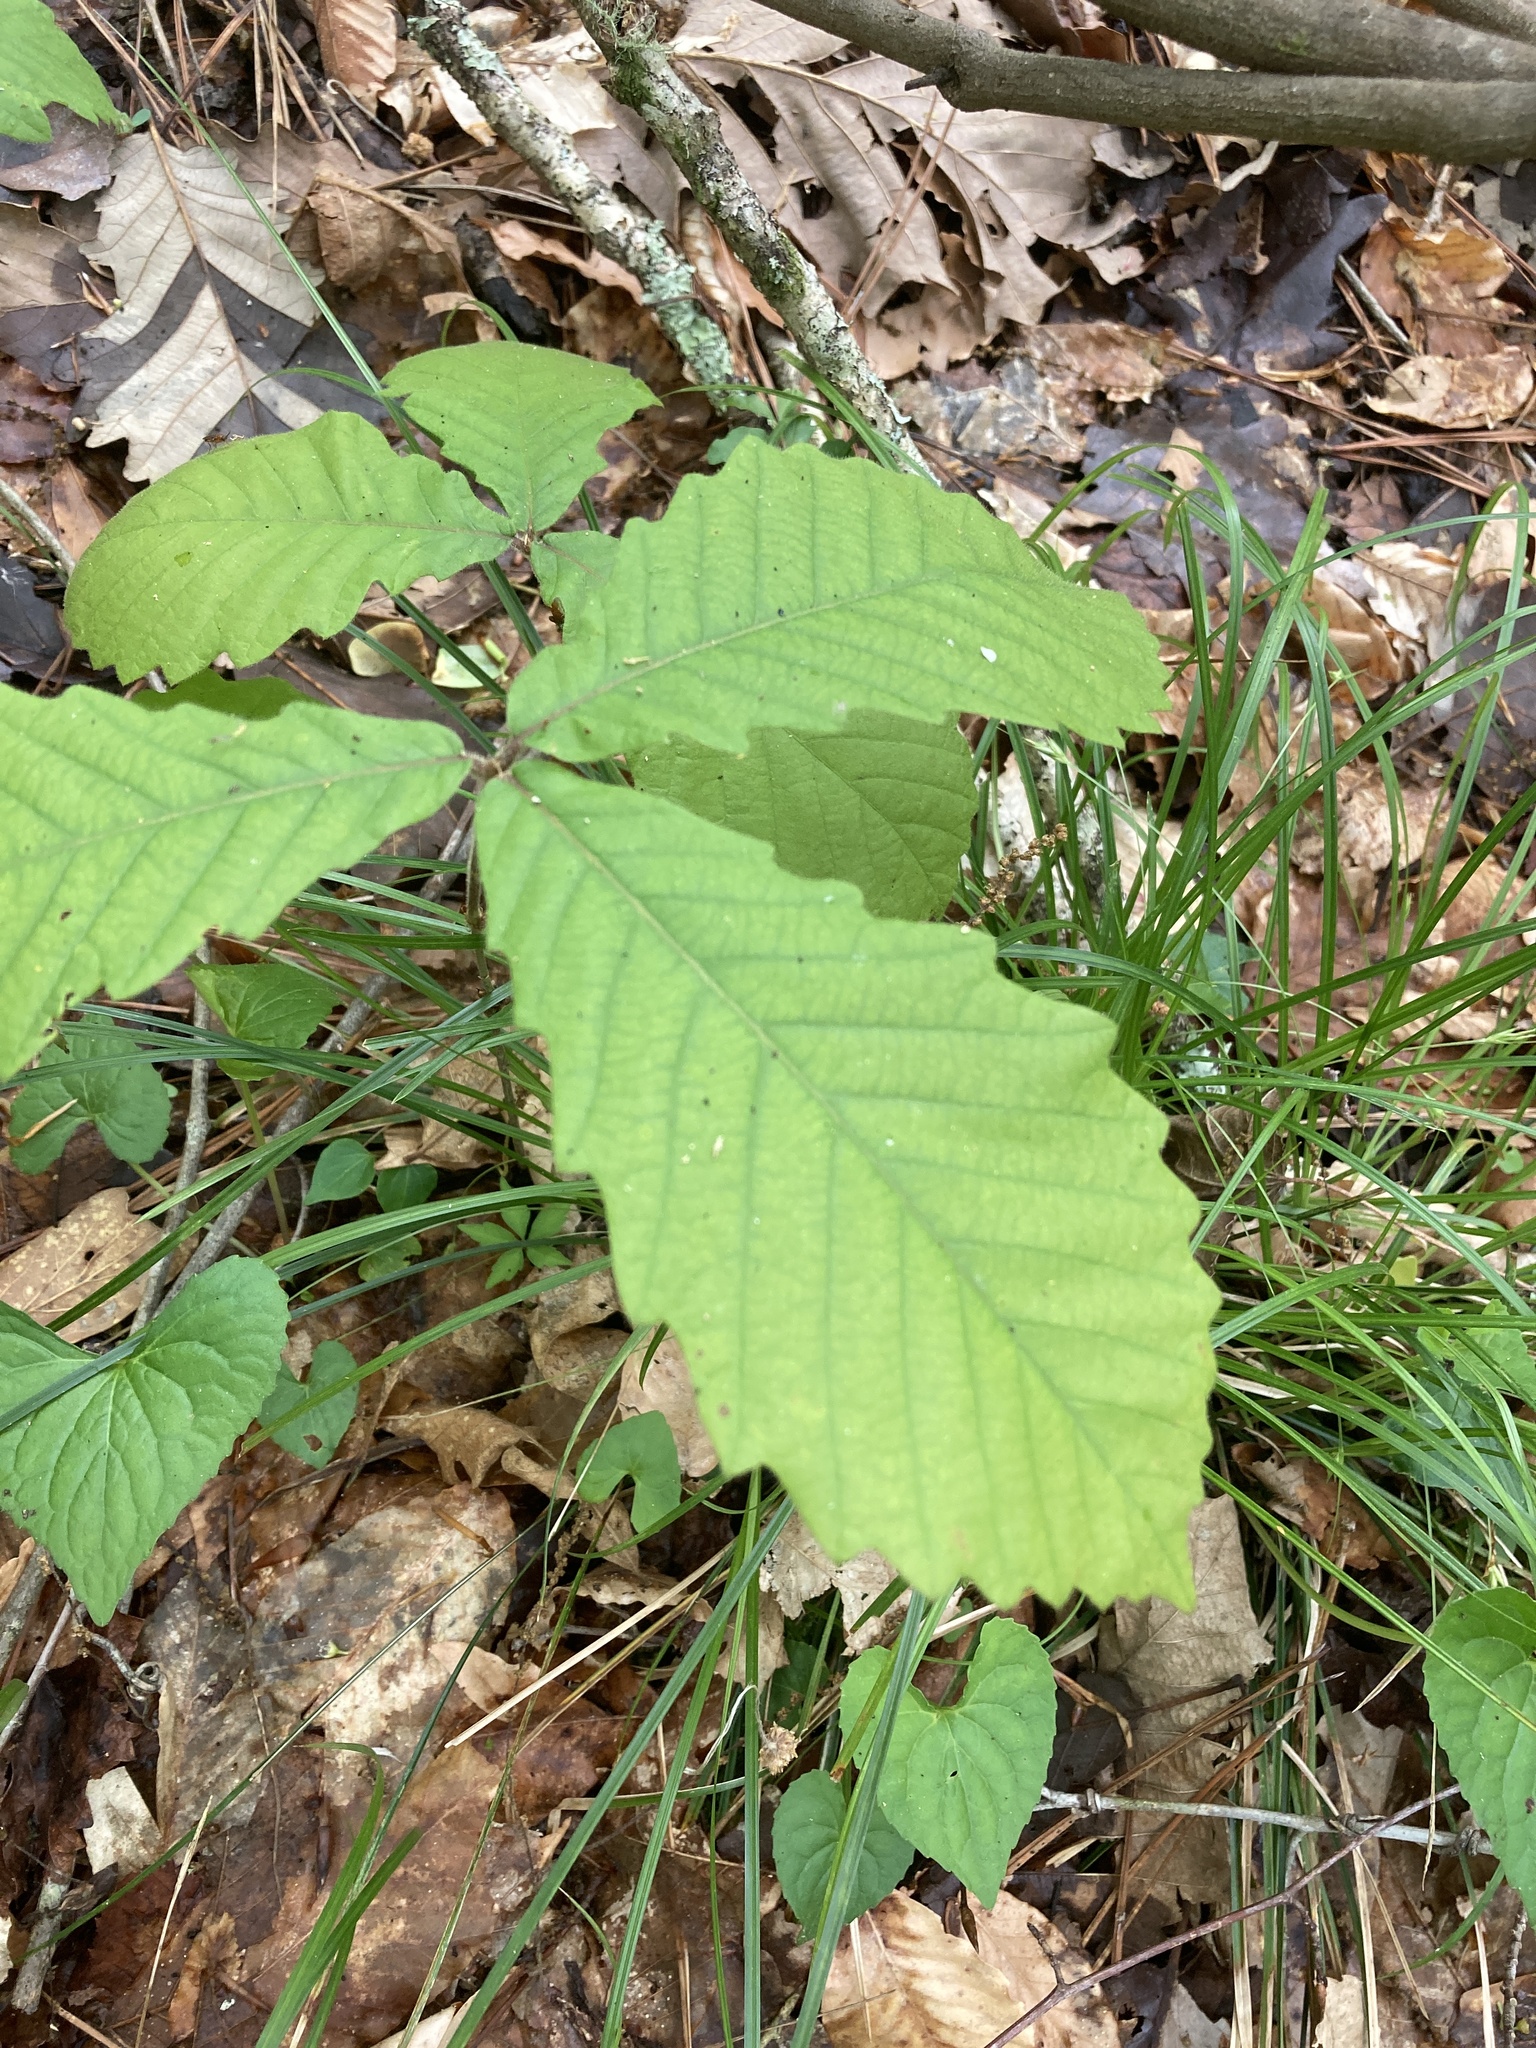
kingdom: Plantae
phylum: Tracheophyta
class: Magnoliopsida
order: Fagales
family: Fagaceae
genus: Quercus
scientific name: Quercus michauxii
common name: Swamp chestnut oak
